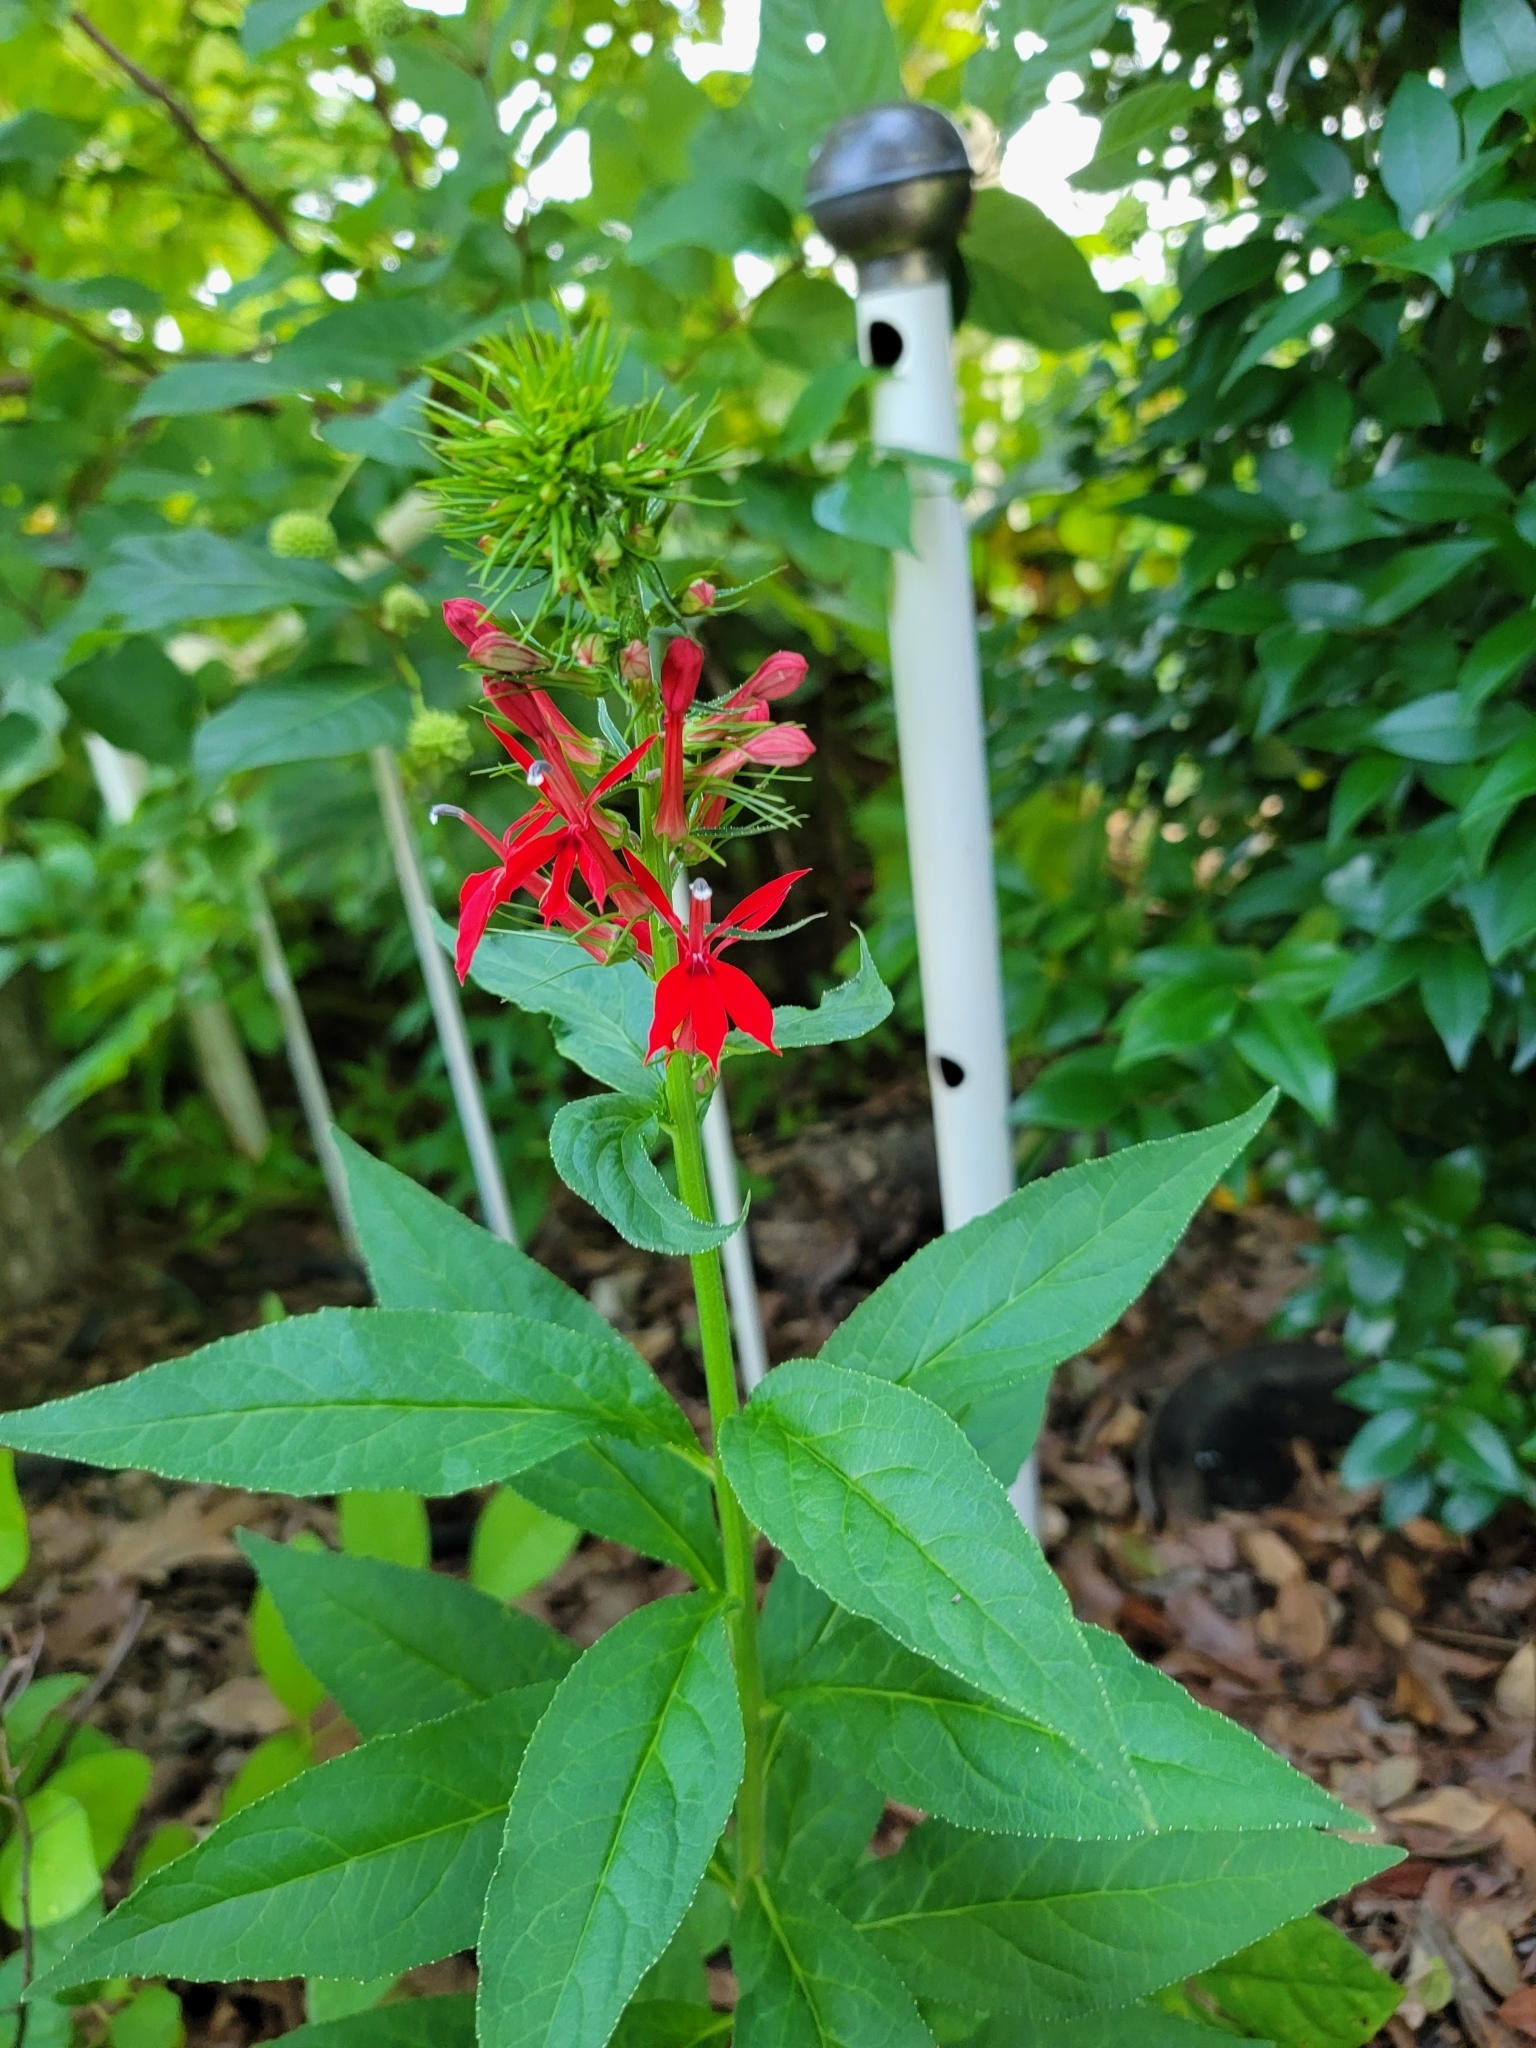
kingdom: Plantae
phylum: Tracheophyta
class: Magnoliopsida
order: Asterales
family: Campanulaceae
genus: Lobelia
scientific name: Lobelia cardinalis
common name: Cardinal flower
